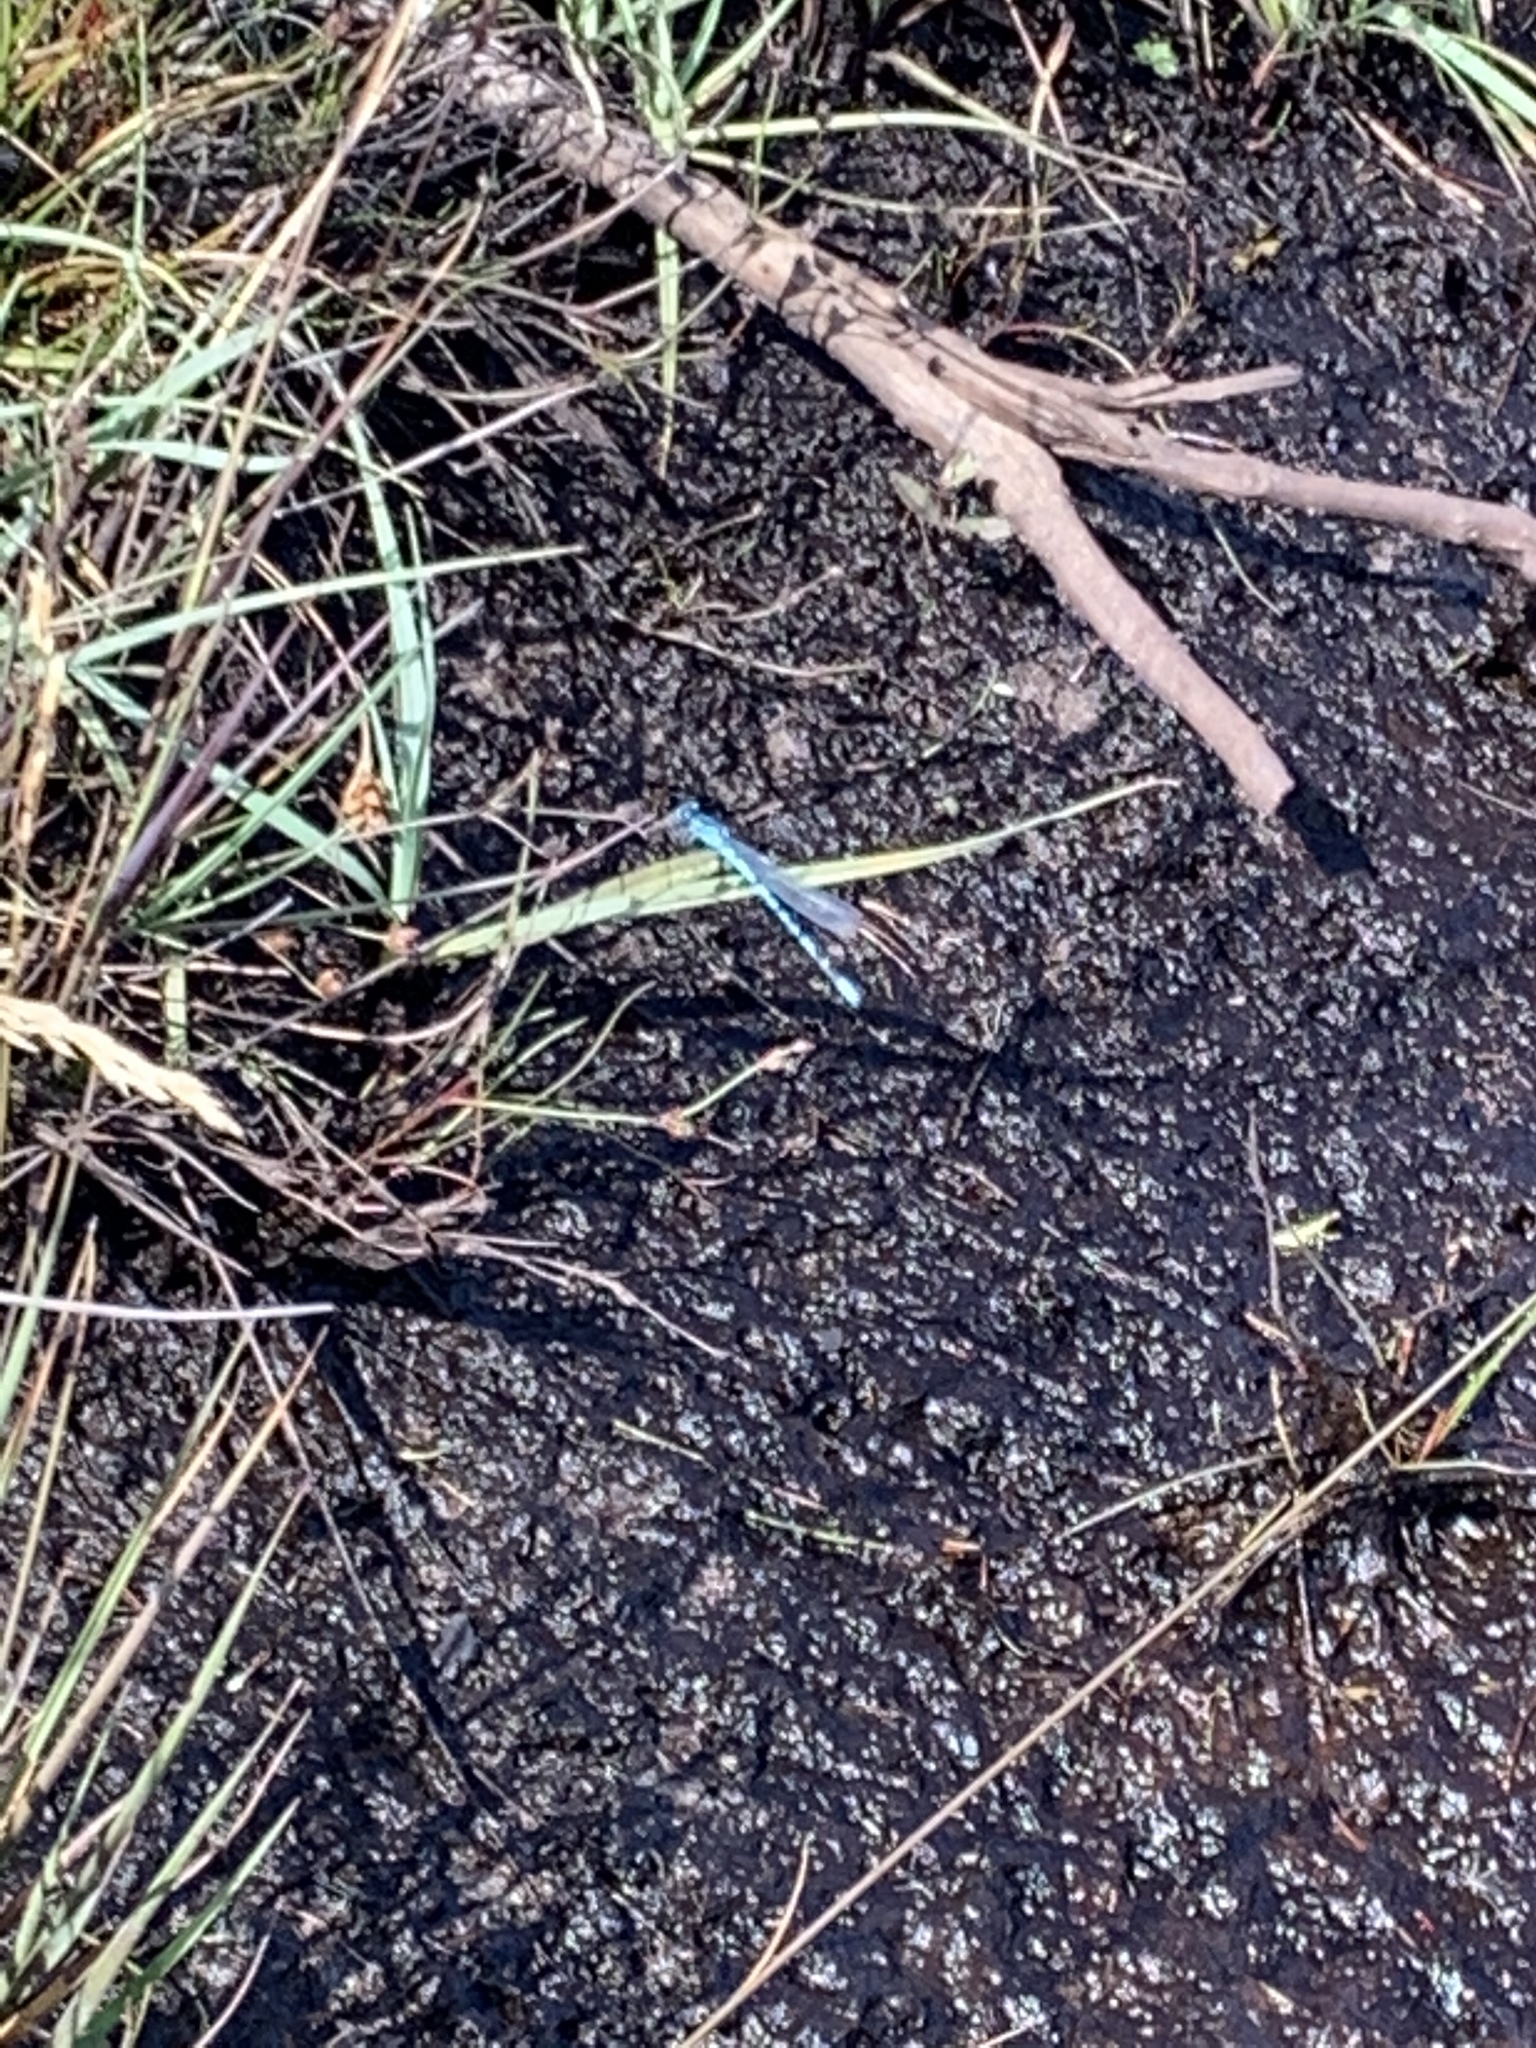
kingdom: Animalia
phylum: Arthropoda
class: Insecta
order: Odonata
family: Coenagrionidae
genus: Enallagma
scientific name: Enallagma cyathigerum
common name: Common blue damselfly
